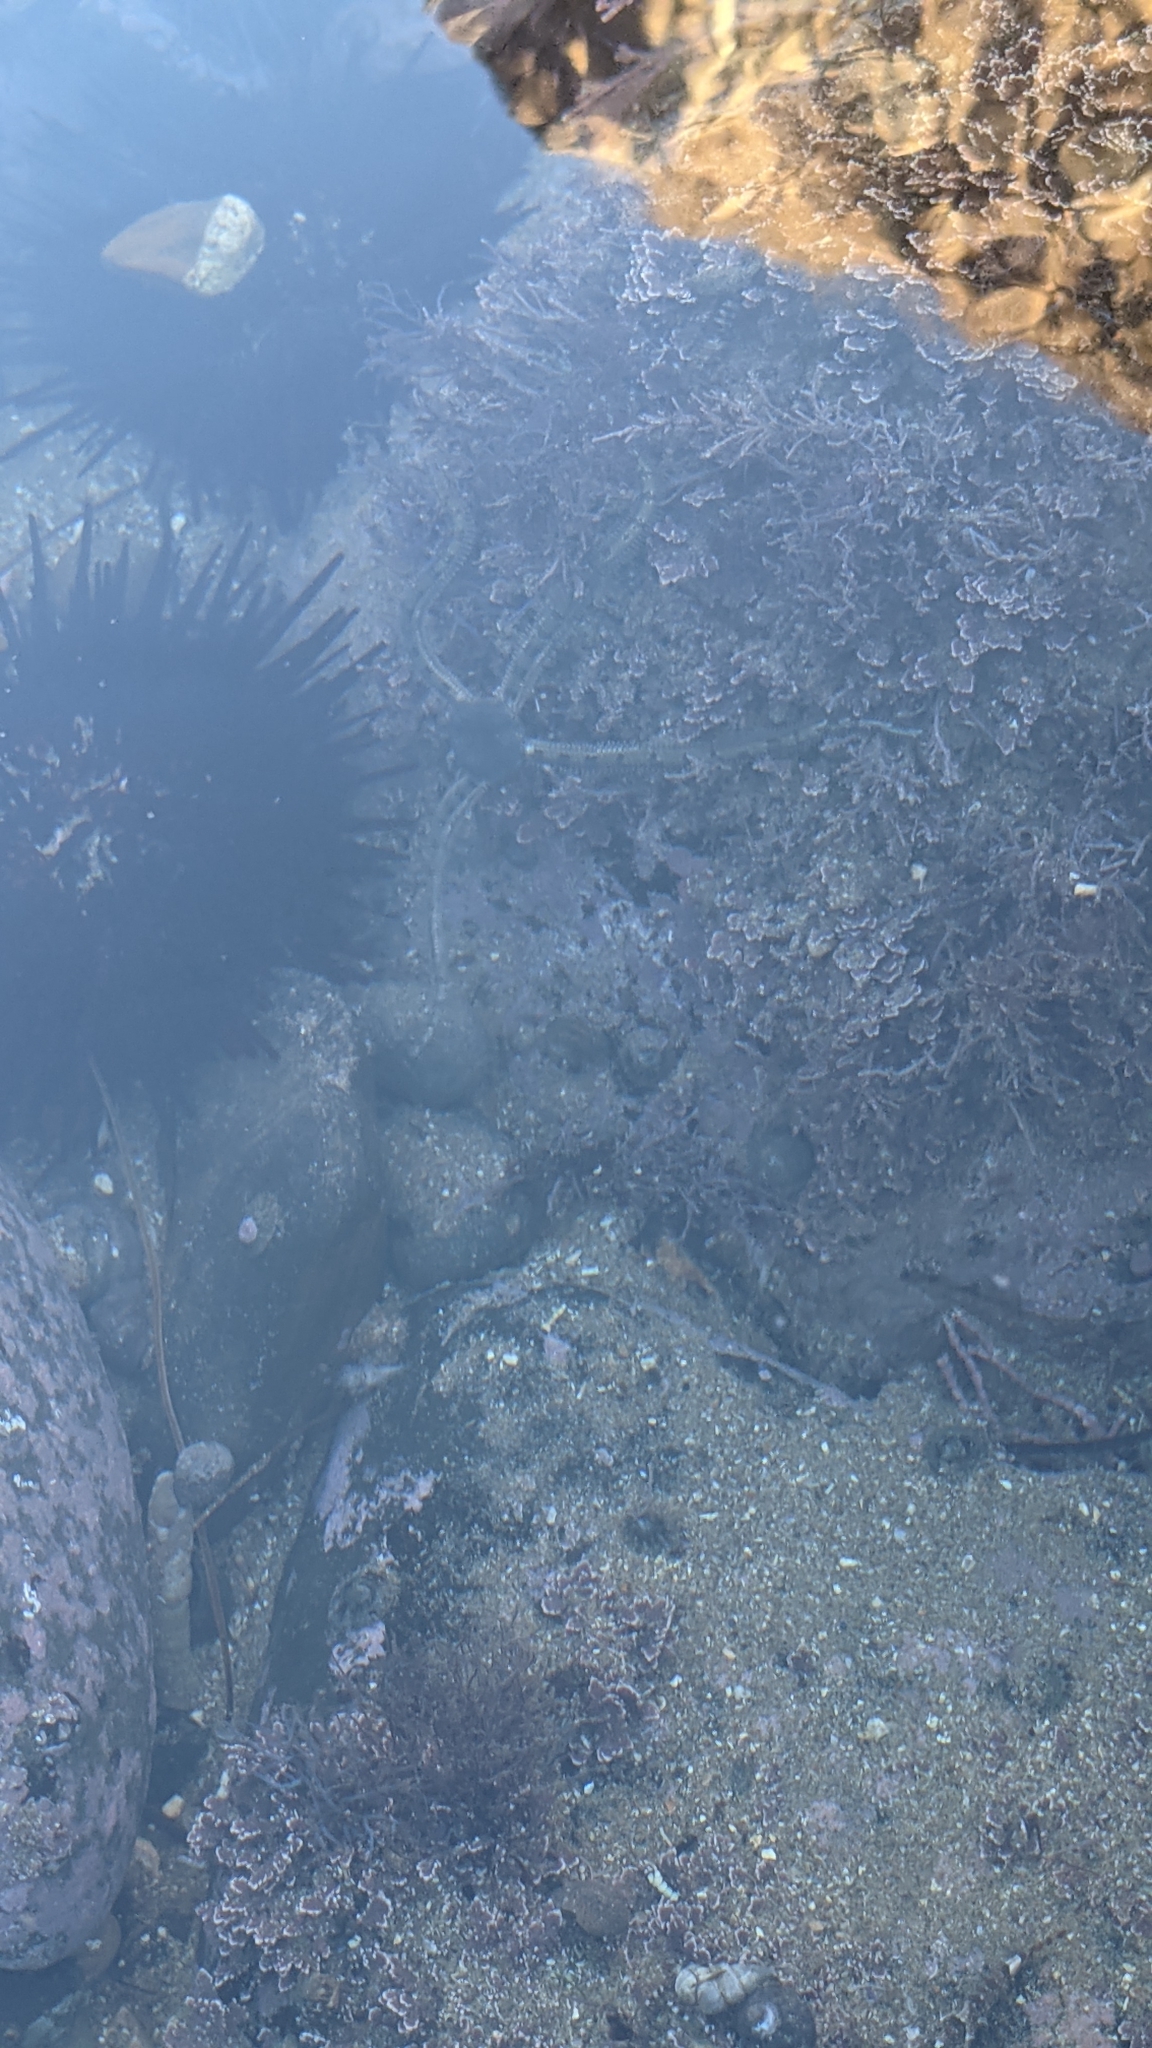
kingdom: Animalia
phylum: Echinodermata
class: Ophiuroidea
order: Amphilepidida
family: Ophionereididae
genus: Ophionereis
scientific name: Ophionereis annulata
